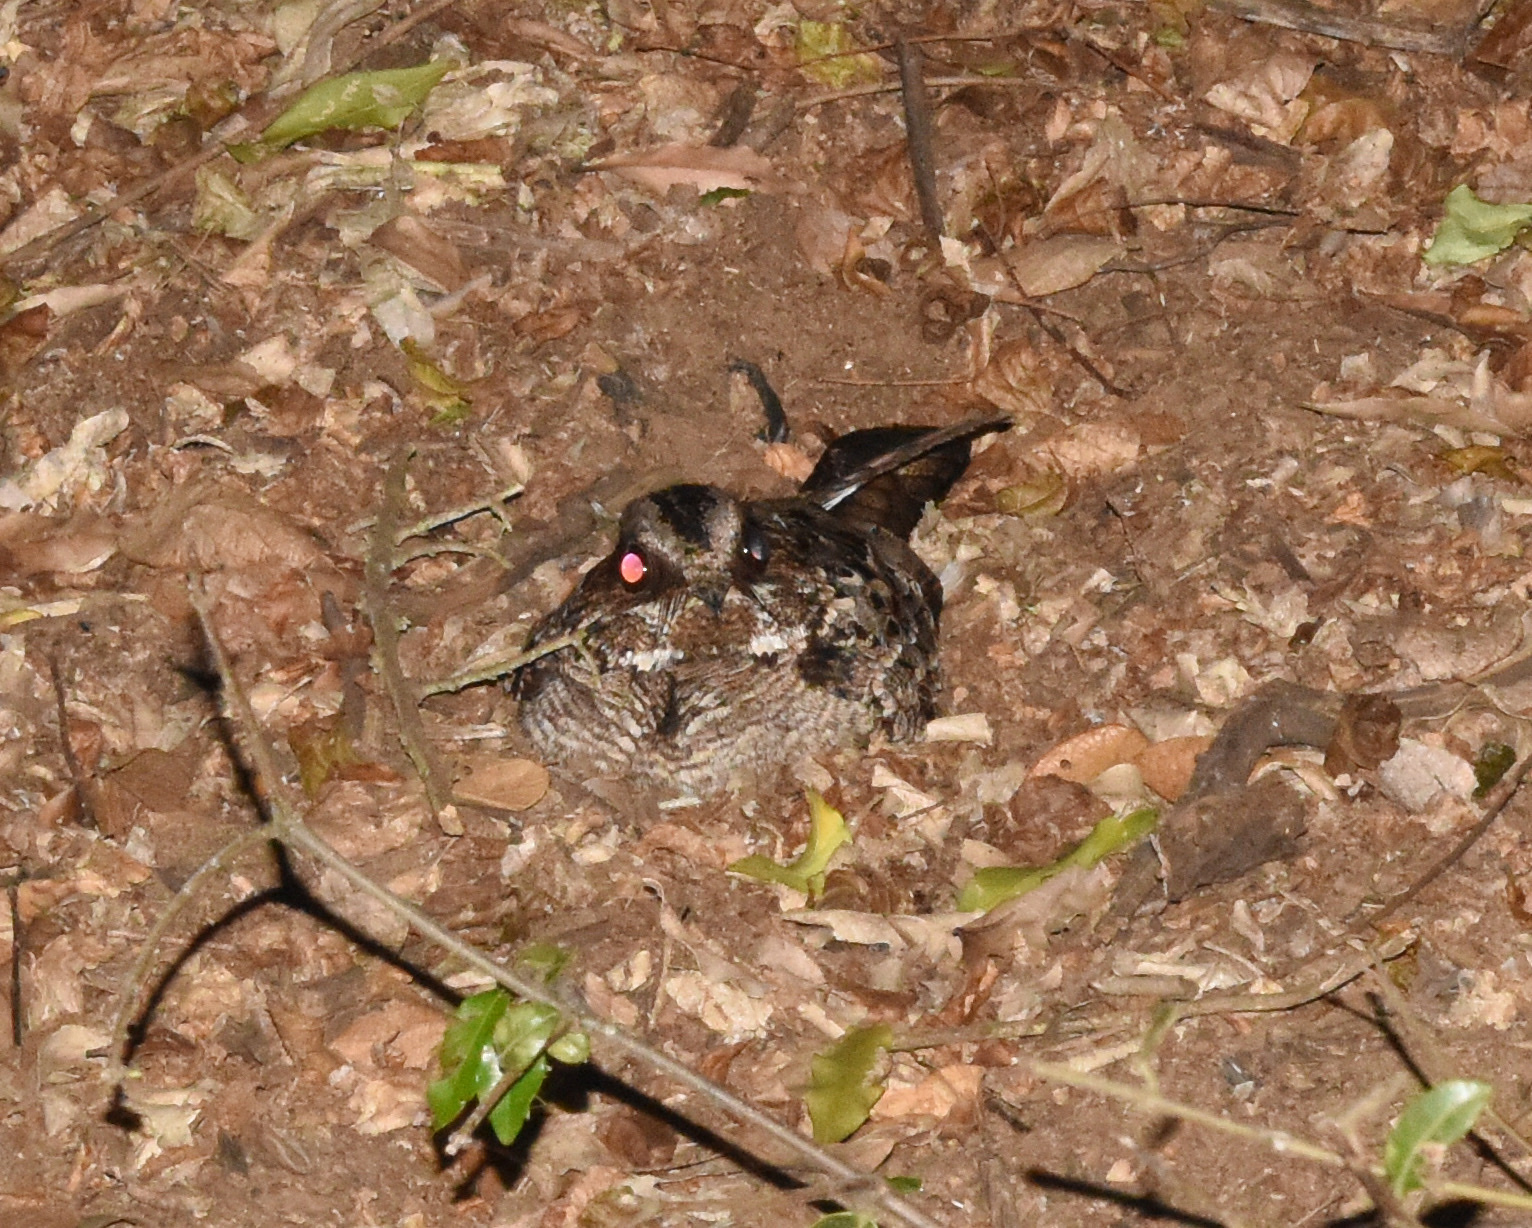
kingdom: Animalia
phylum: Chordata
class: Aves
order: Caprimulgiformes
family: Caprimulgidae
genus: Caprimulgus
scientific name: Caprimulgus pectoralis
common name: Fiery-necked nightjar
